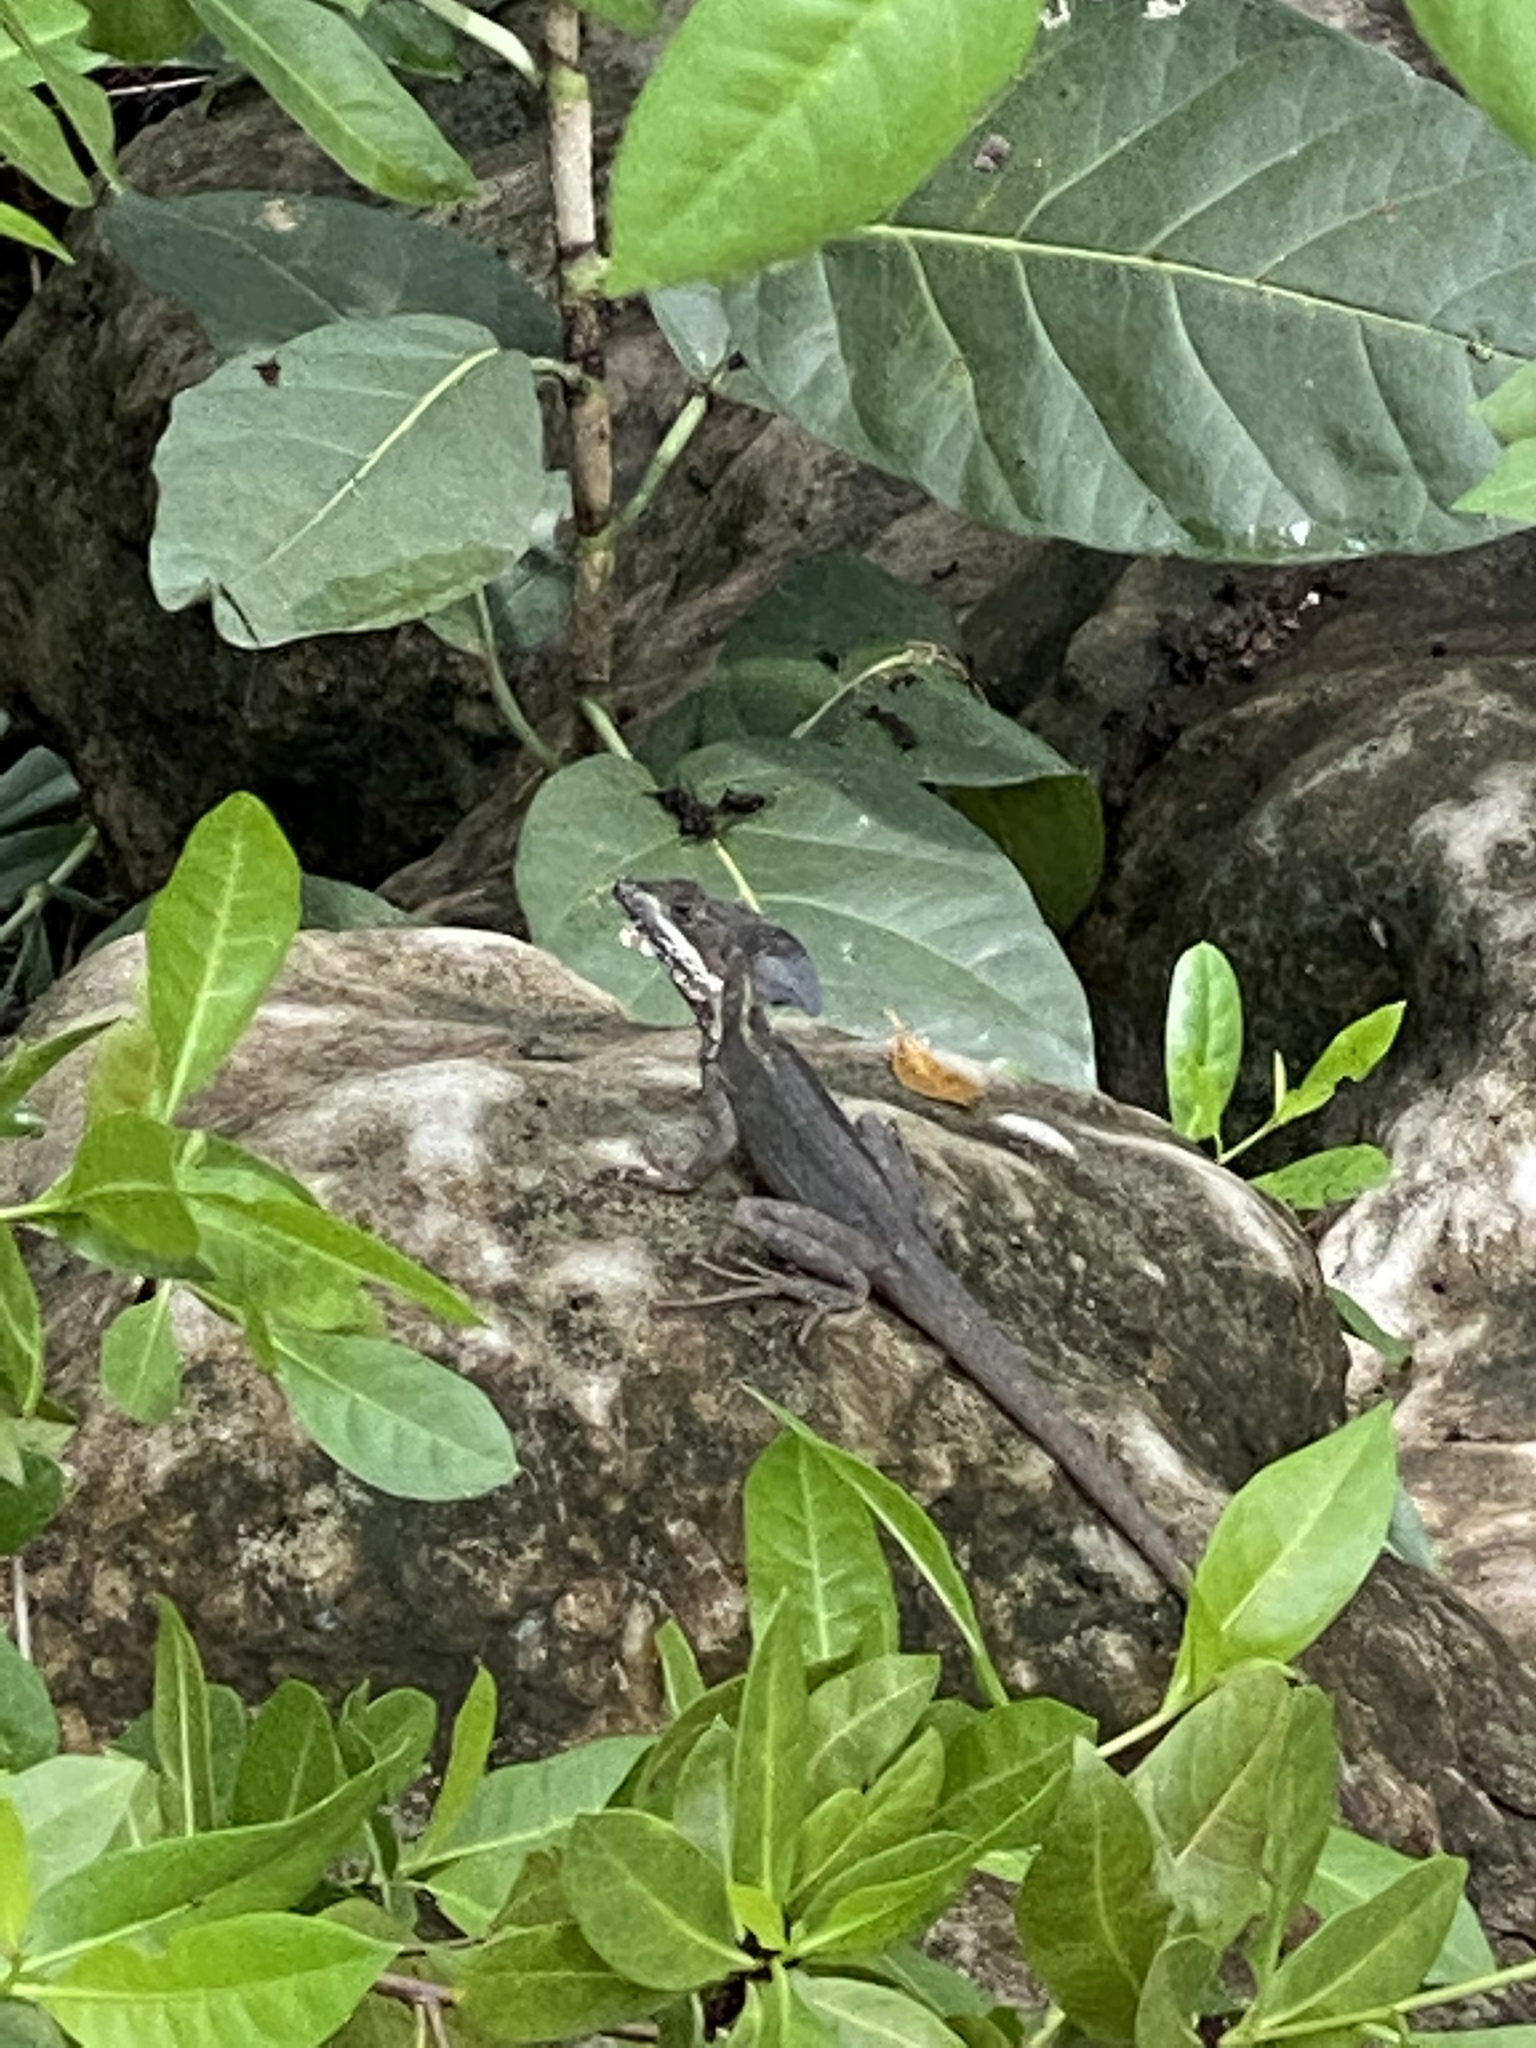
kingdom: Animalia
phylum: Chordata
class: Squamata
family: Corytophanidae
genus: Basiliscus
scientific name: Basiliscus vittatus
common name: Brown basilisk
